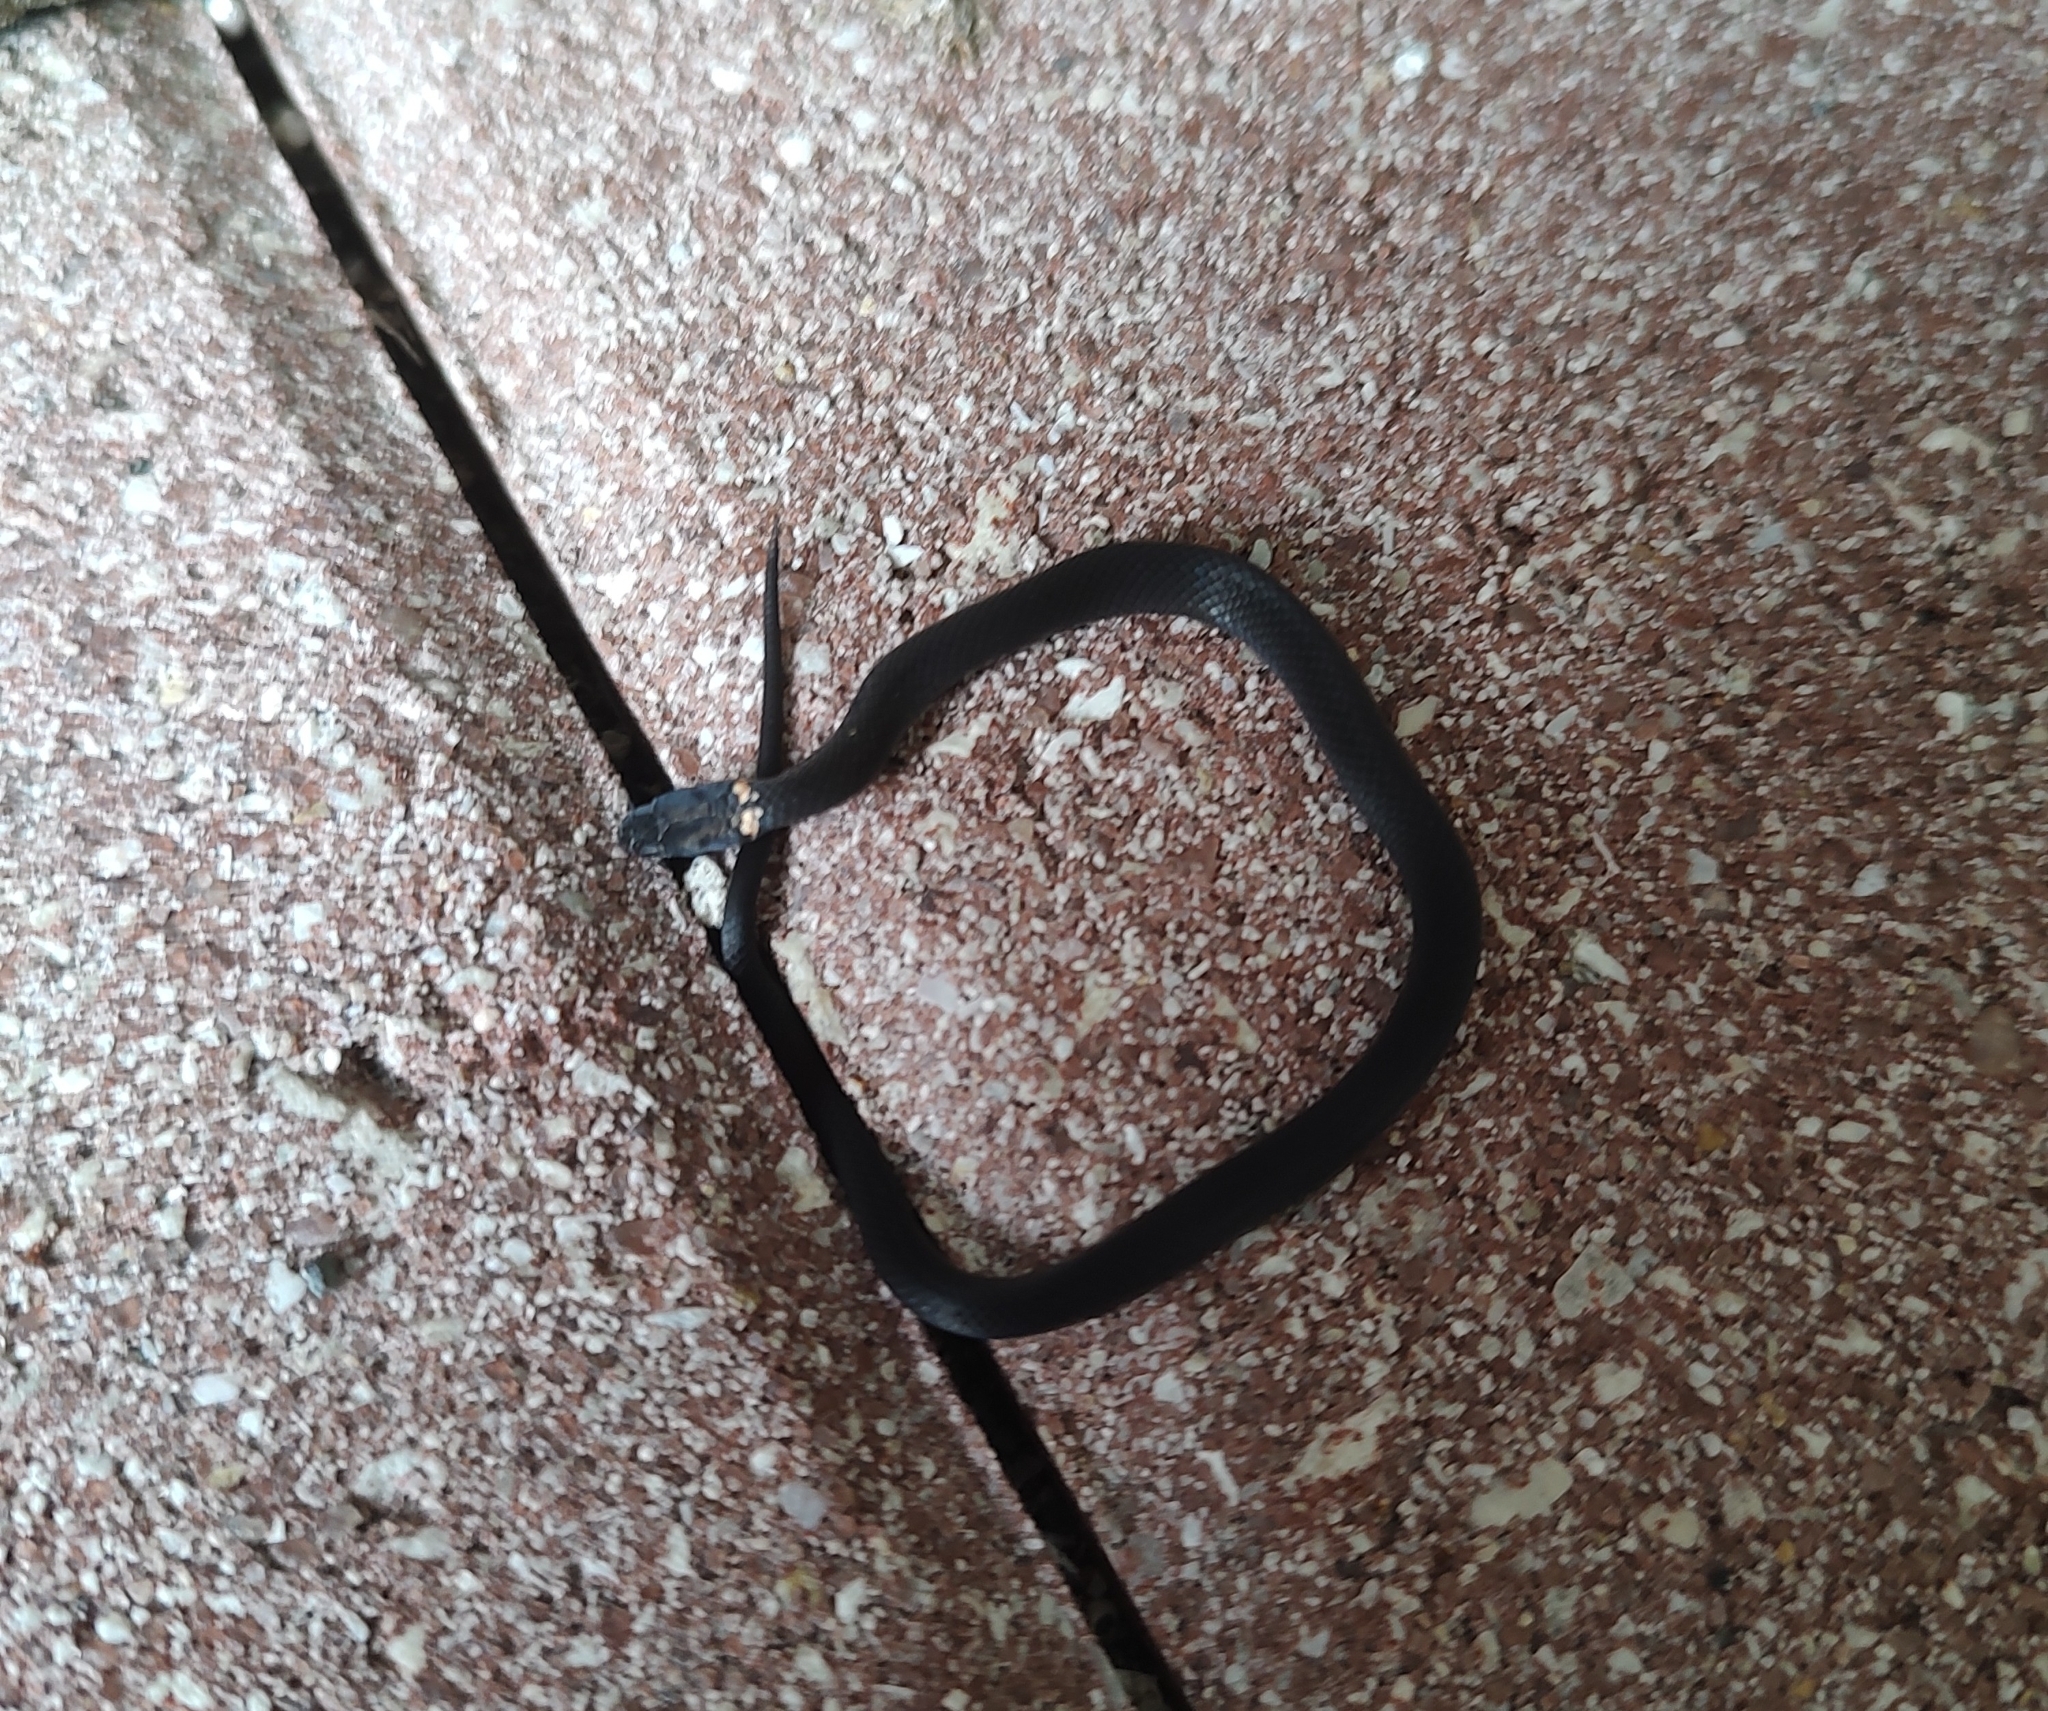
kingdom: Animalia
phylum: Chordata
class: Squamata
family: Colubridae
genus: Diadophis
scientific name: Diadophis punctatus
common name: Ringneck snake
